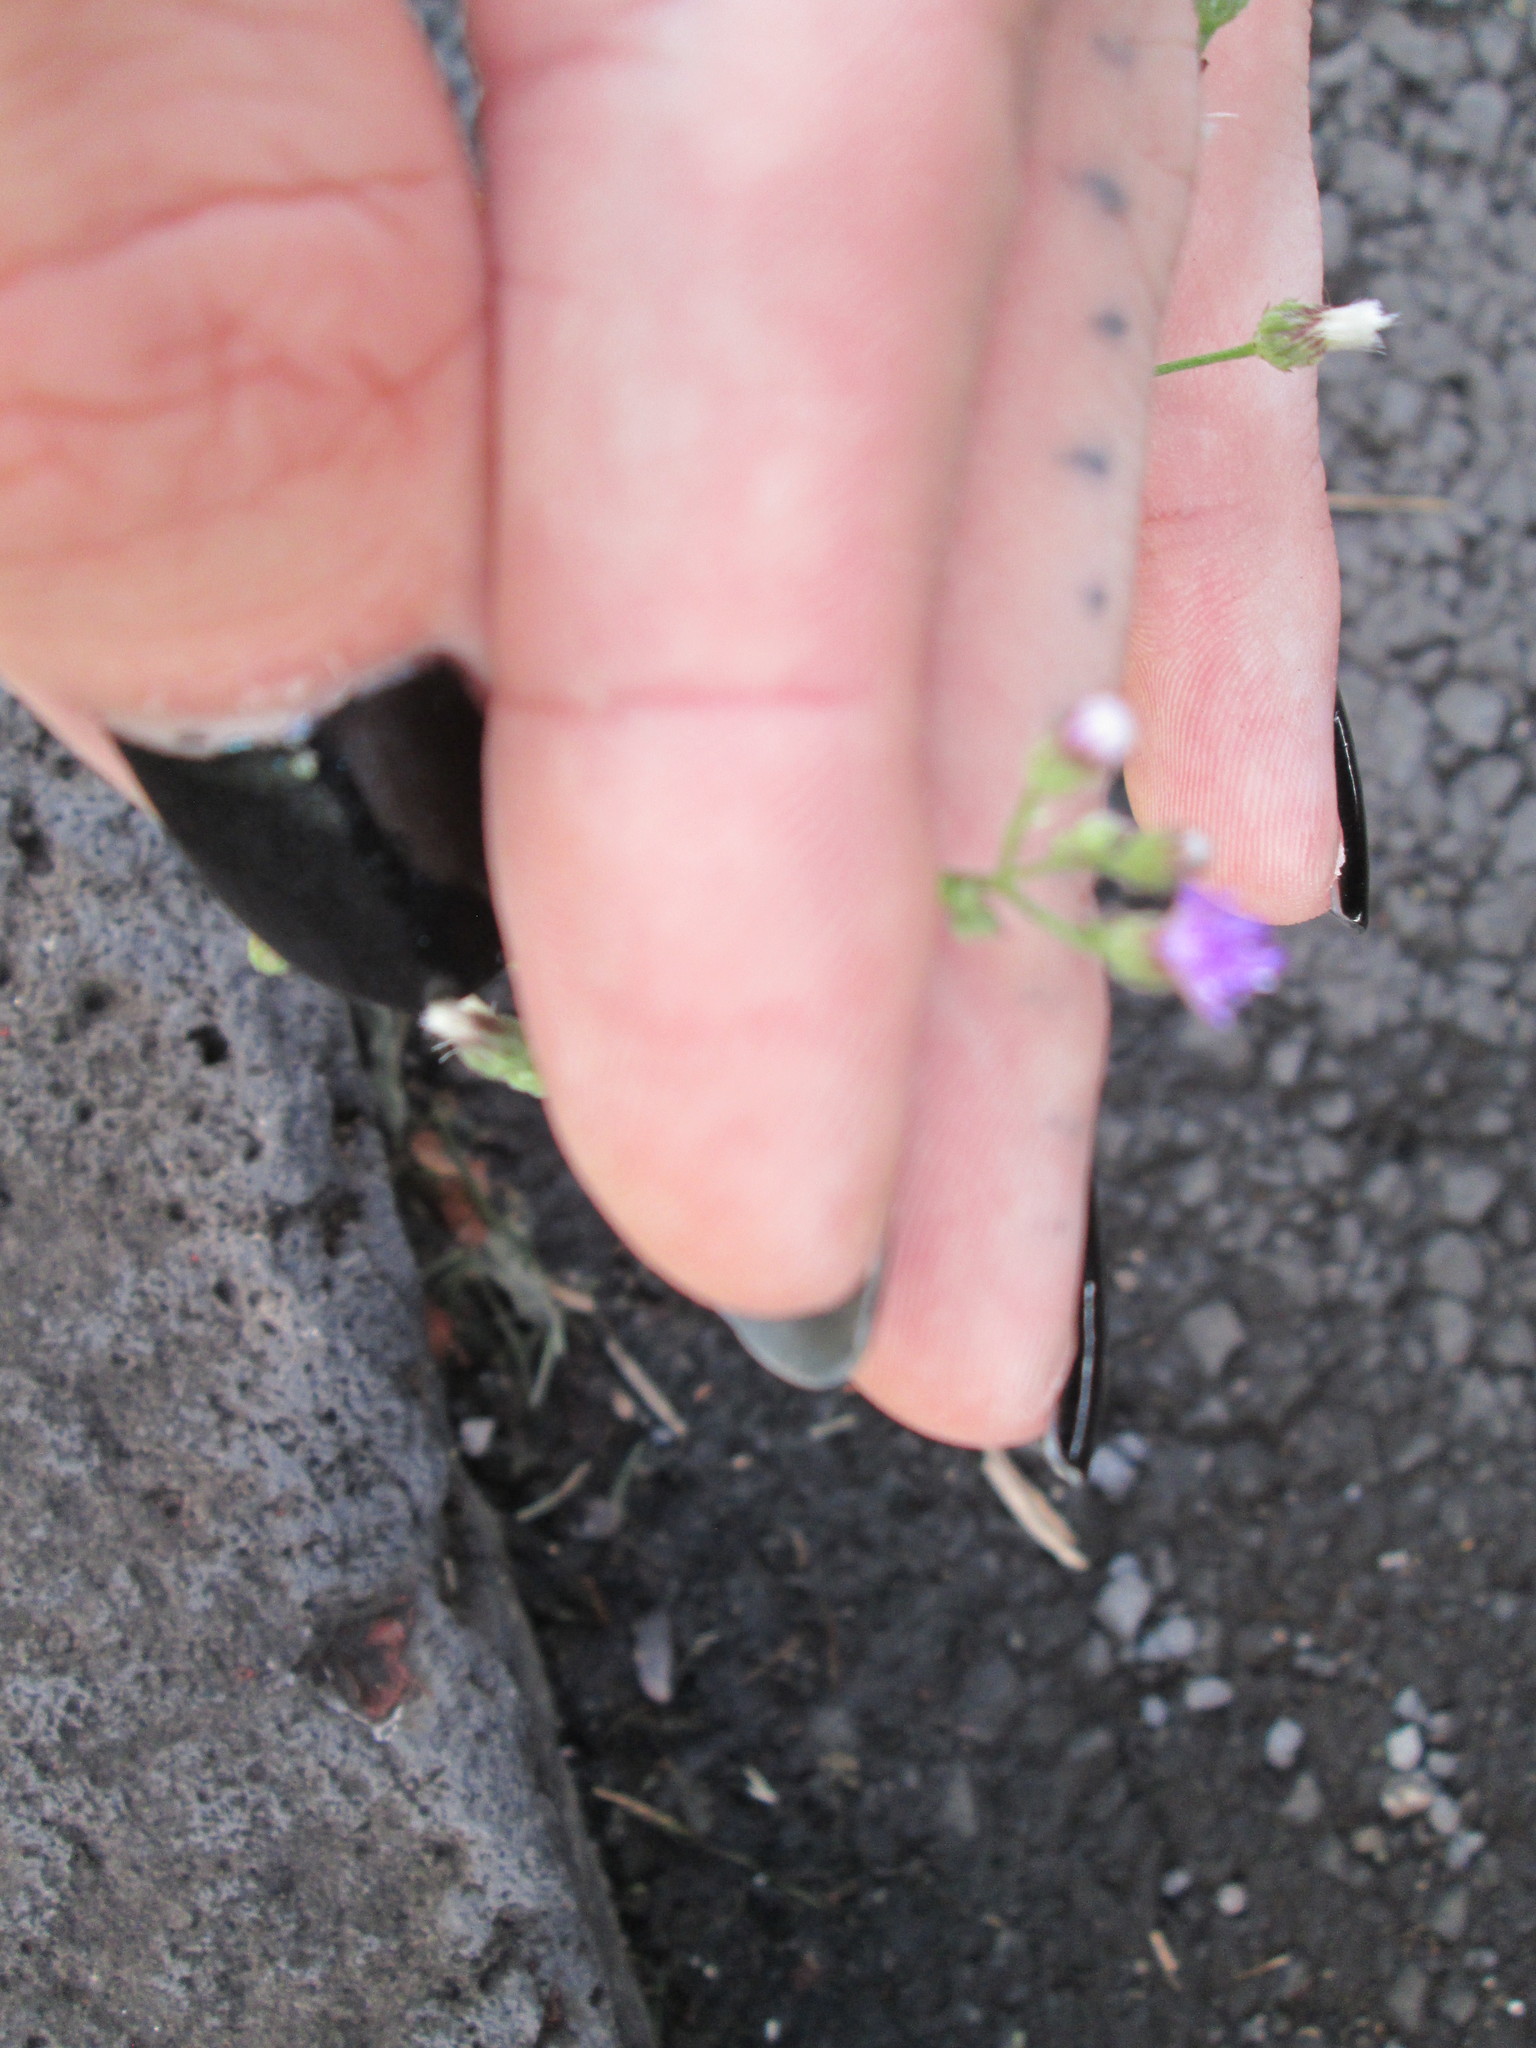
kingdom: Plantae
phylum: Tracheophyta
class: Magnoliopsida
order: Asterales
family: Asteraceae
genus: Cyanthillium
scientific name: Cyanthillium cinereum
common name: Little ironweed
